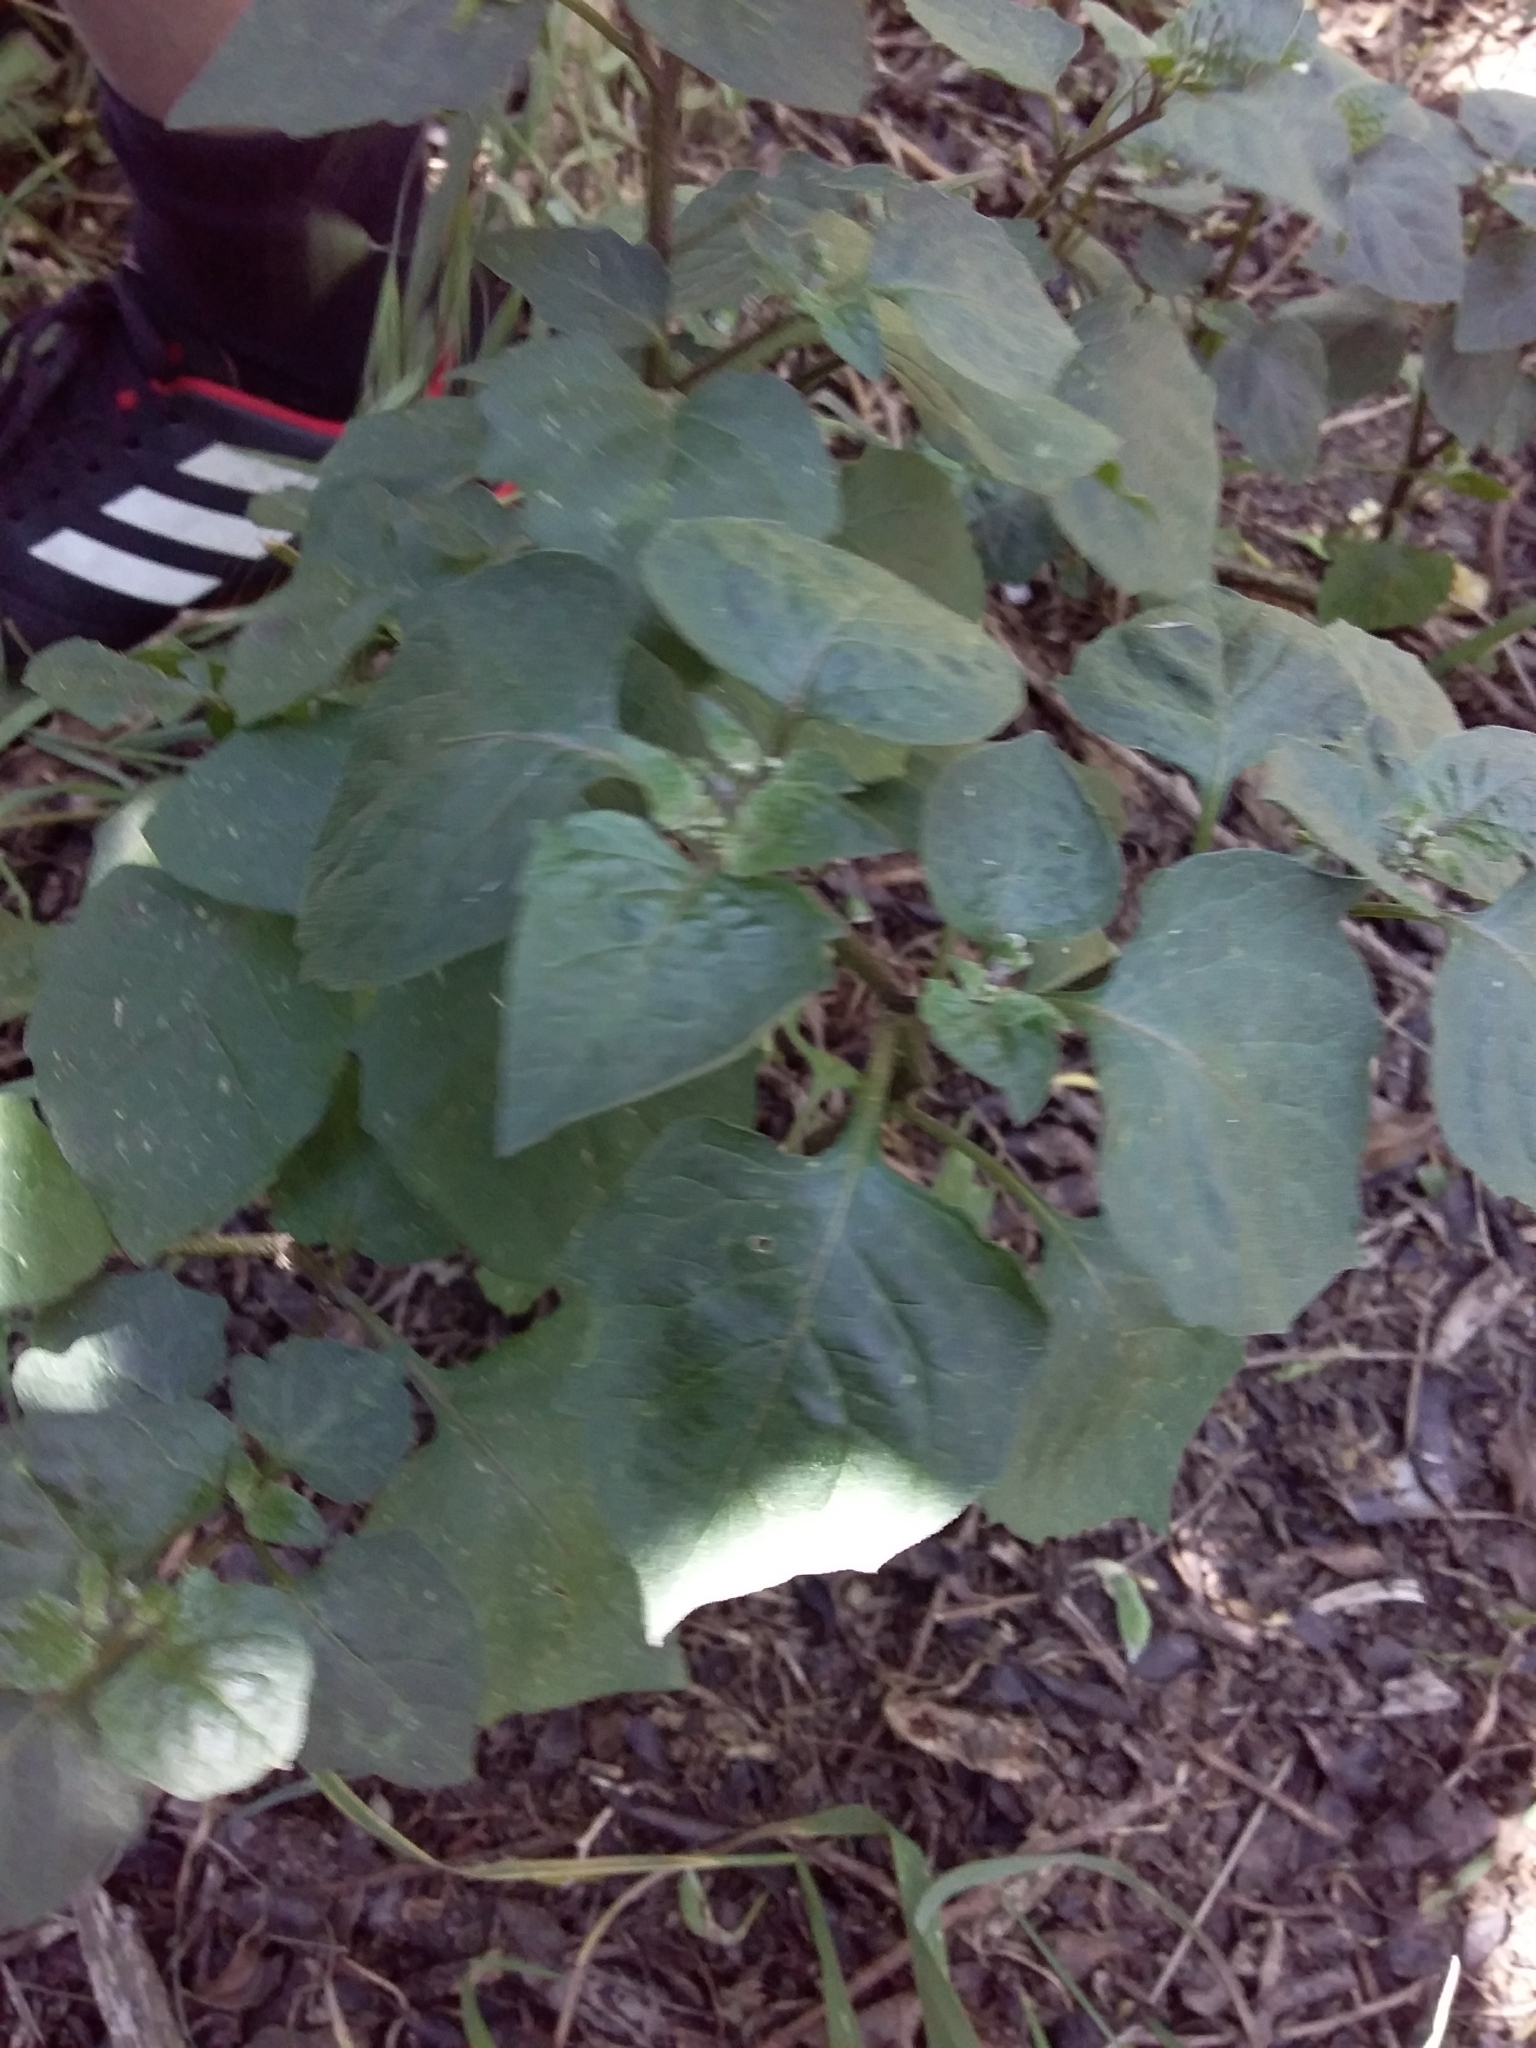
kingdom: Plantae
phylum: Tracheophyta
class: Magnoliopsida
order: Solanales
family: Solanaceae
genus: Solanum
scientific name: Solanum nigrum
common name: Black nightshade
